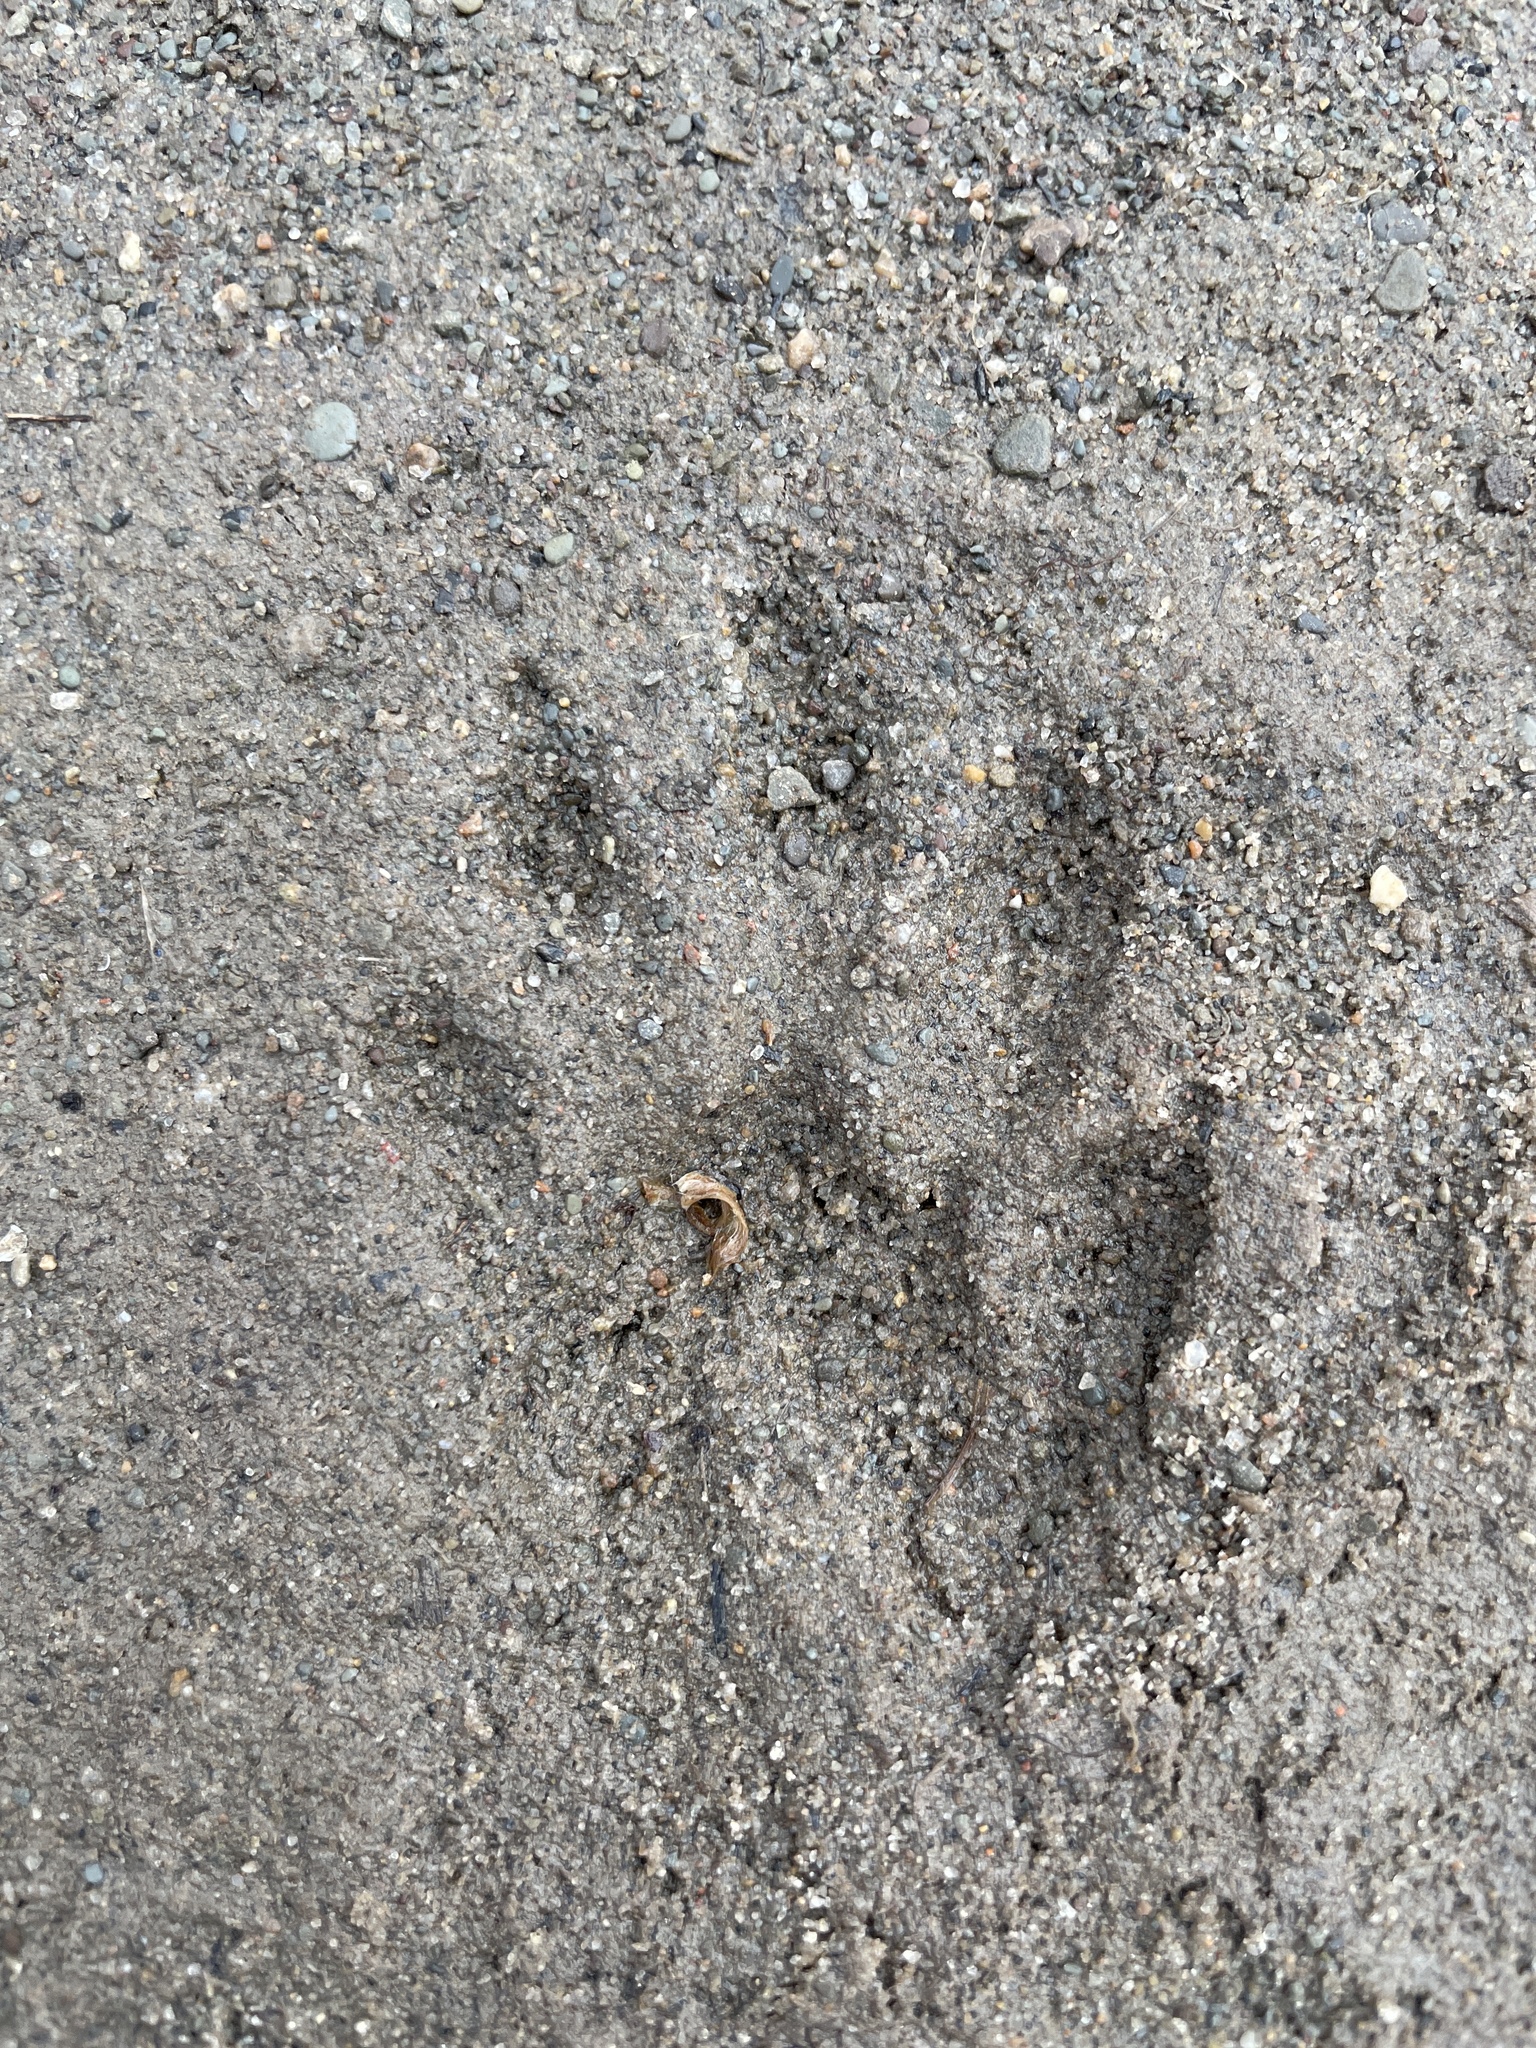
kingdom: Animalia
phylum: Chordata
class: Mammalia
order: Carnivora
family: Procyonidae
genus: Procyon
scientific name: Procyon lotor
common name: Raccoon
